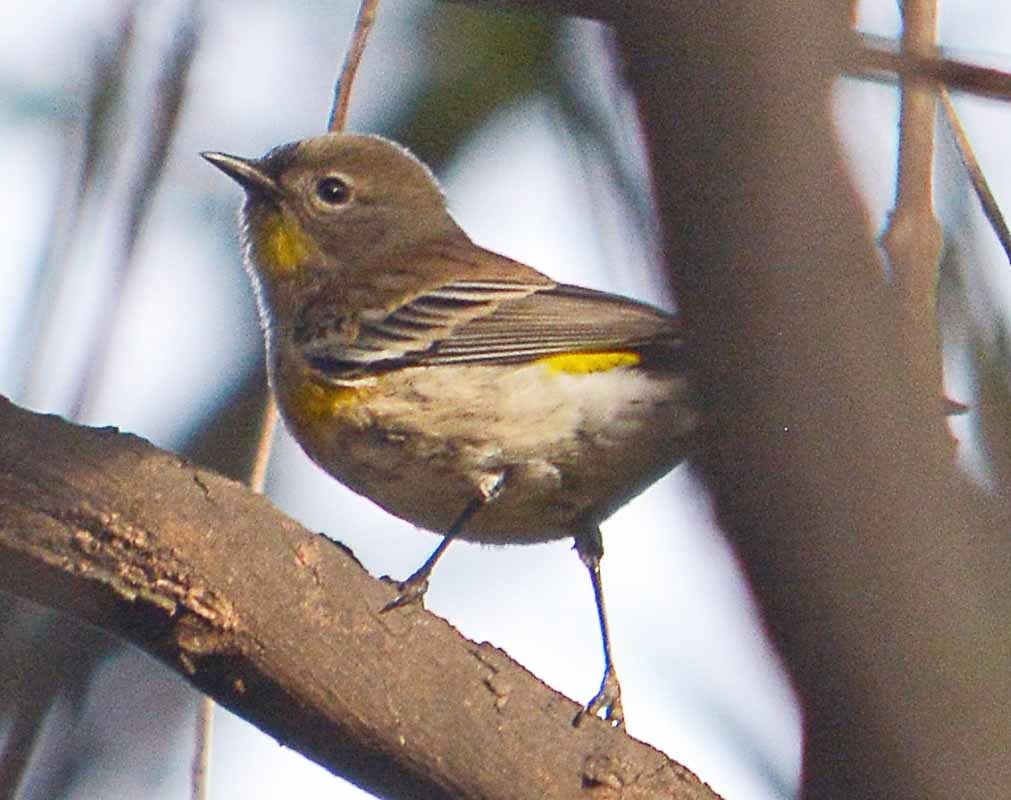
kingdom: Animalia
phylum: Chordata
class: Aves
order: Passeriformes
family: Parulidae
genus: Setophaga
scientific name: Setophaga coronata
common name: Myrtle warbler
